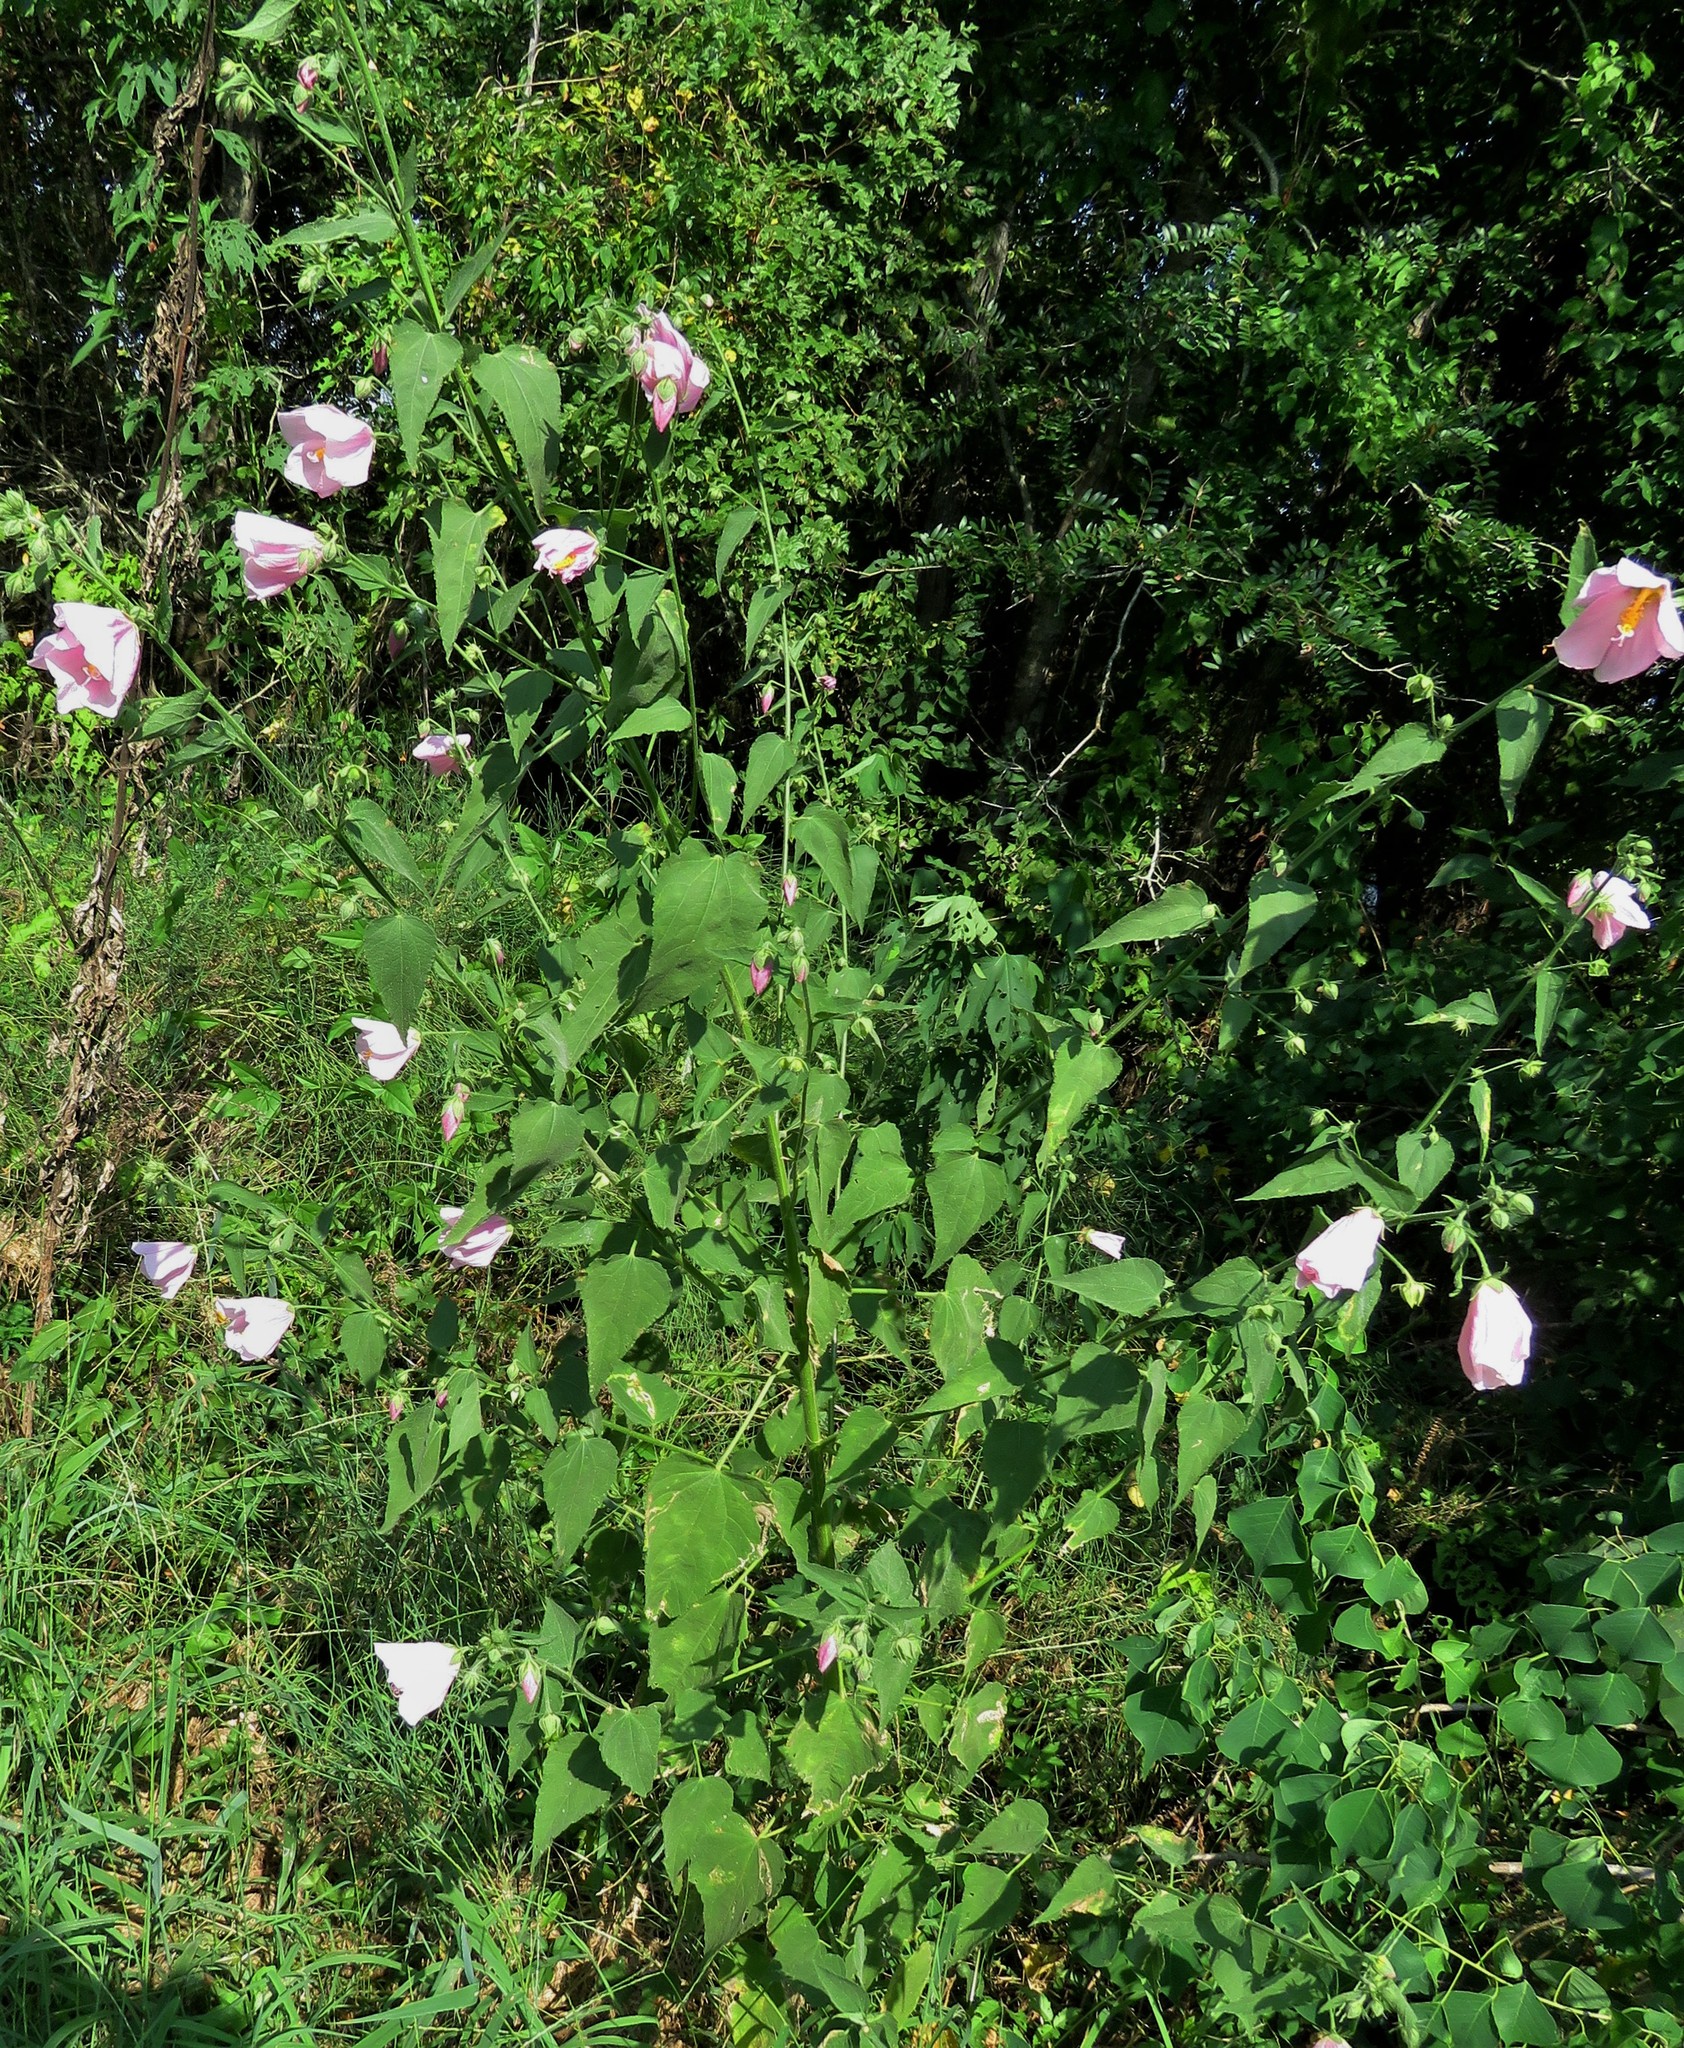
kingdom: Plantae
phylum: Tracheophyta
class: Magnoliopsida
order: Malvales
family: Malvaceae
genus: Kosteletzkya
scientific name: Kosteletzkya pentacarpos
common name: Virginia saltmarsh mallow
